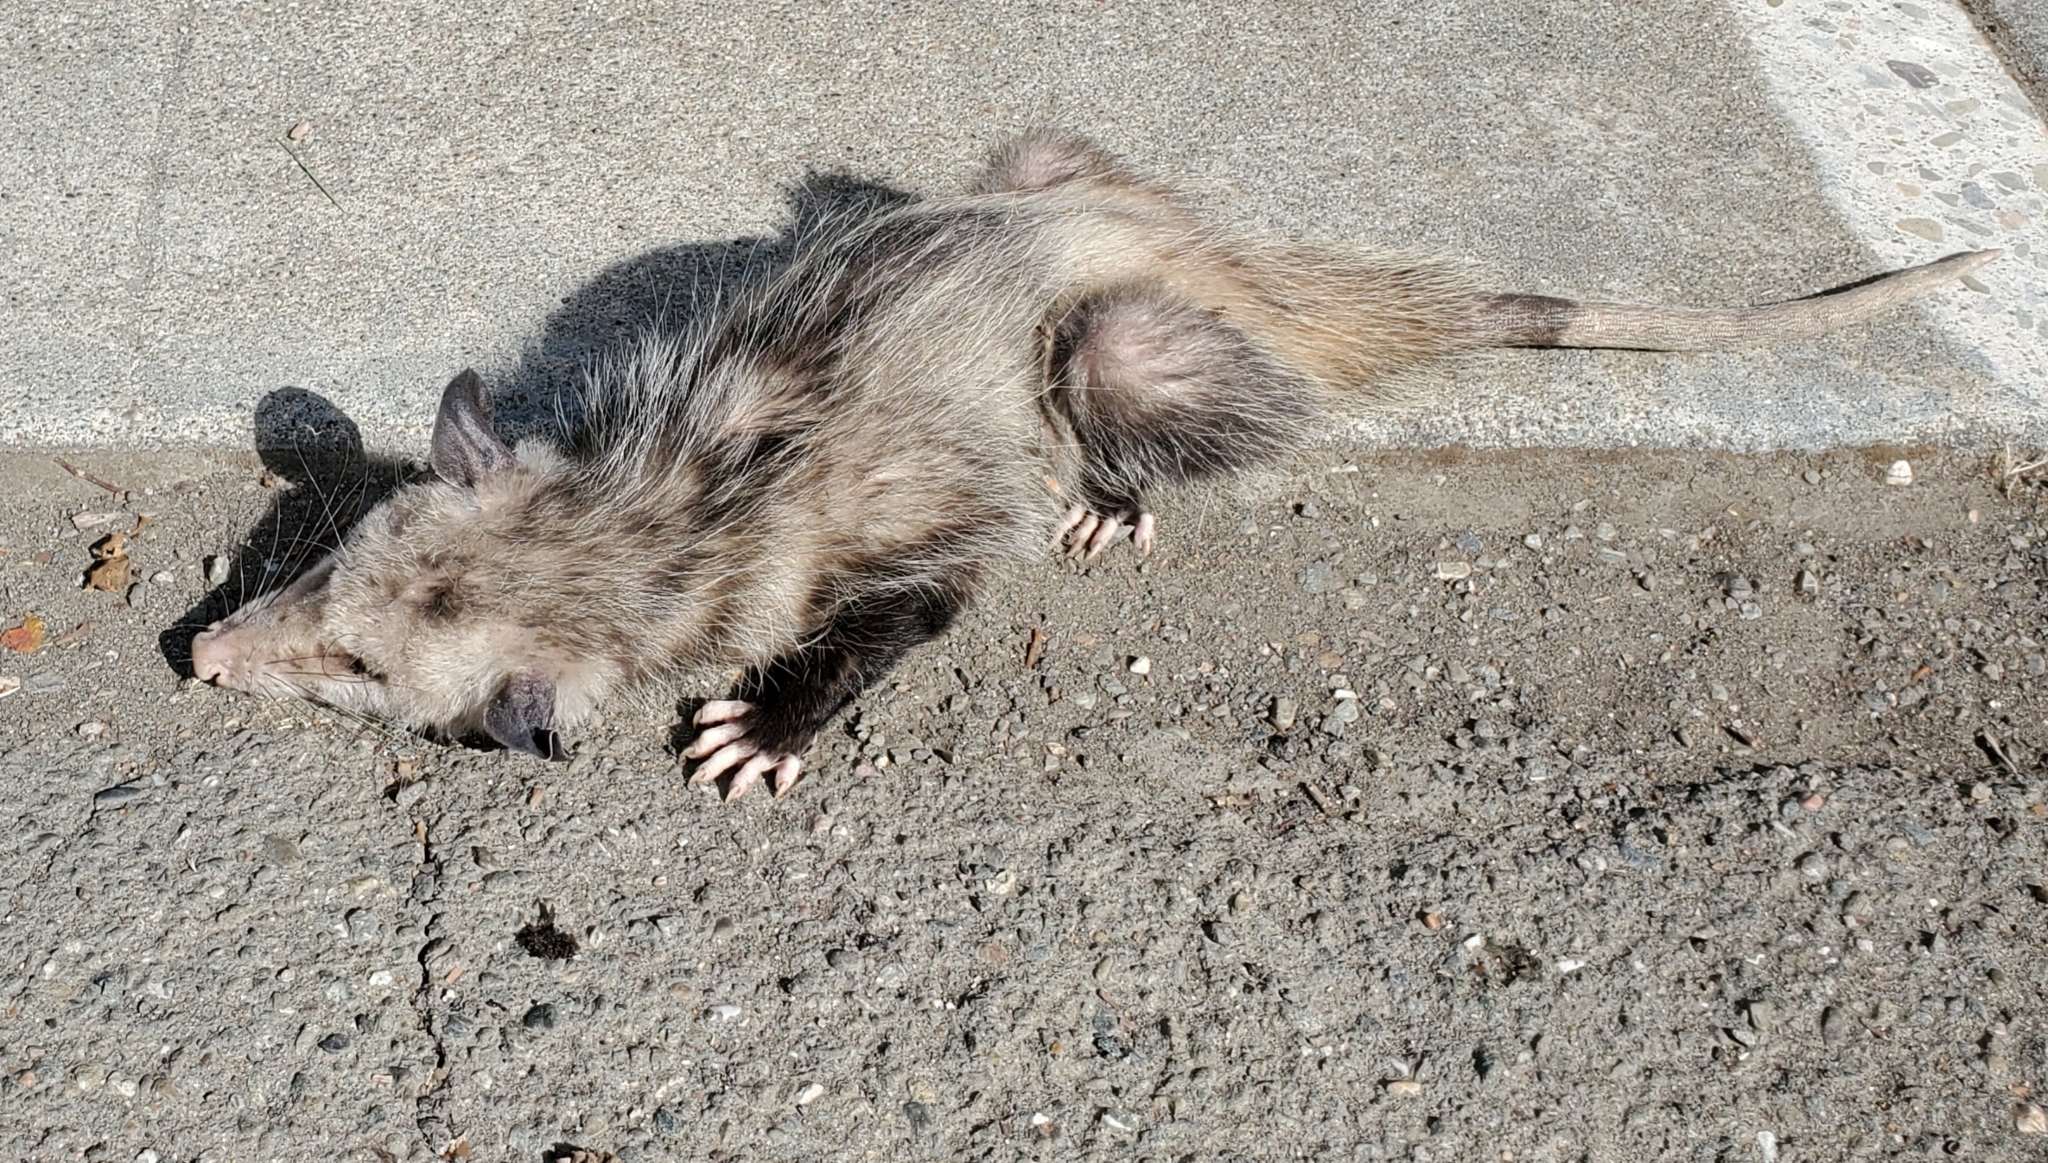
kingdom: Animalia
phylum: Chordata
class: Mammalia
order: Didelphimorphia
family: Didelphidae
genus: Didelphis
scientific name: Didelphis virginiana
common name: Virginia opossum
